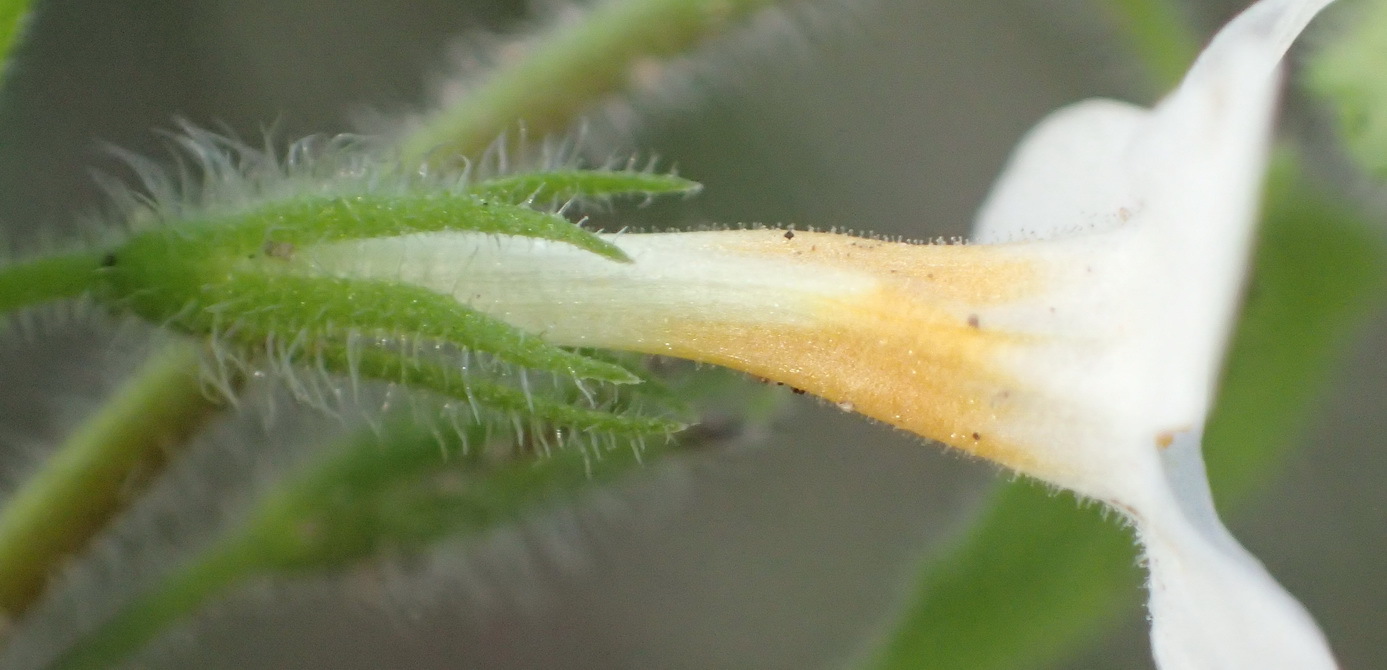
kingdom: Plantae
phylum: Tracheophyta
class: Magnoliopsida
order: Lamiales
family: Scrophulariaceae
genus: Chaenostoma
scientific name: Chaenostoma cordatum
